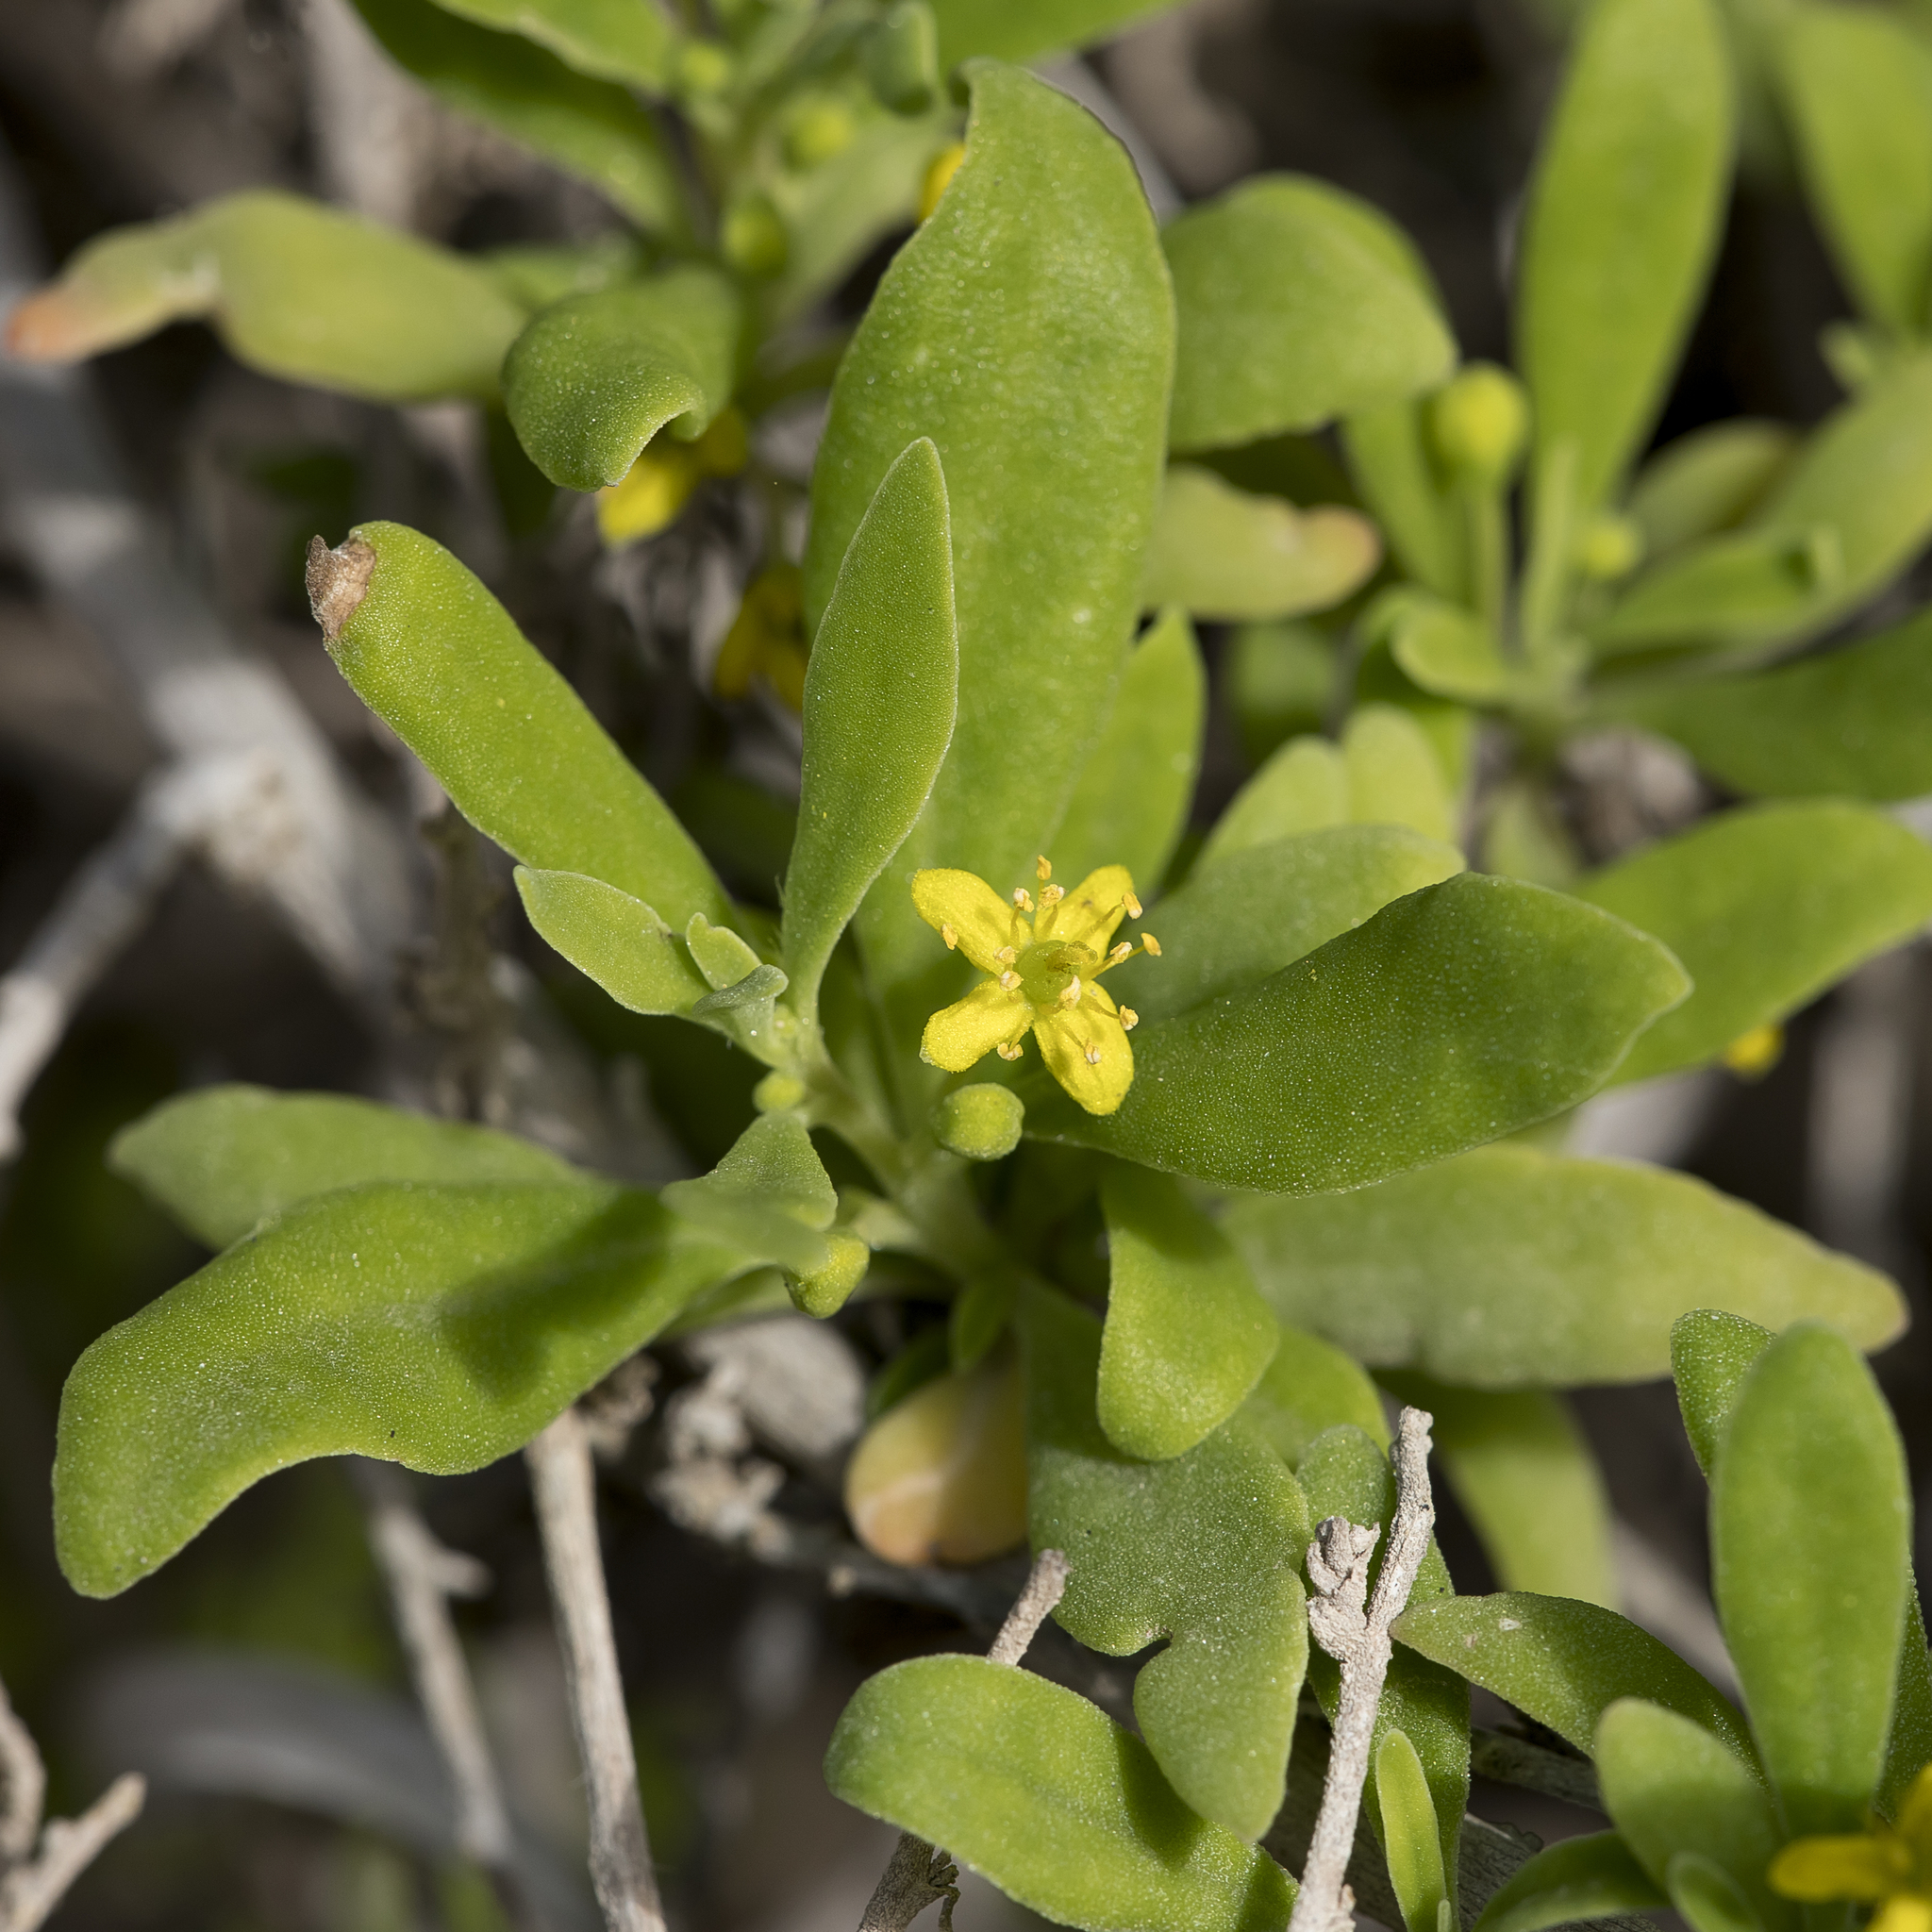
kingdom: Plantae
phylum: Tracheophyta
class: Magnoliopsida
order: Caryophyllales
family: Aizoaceae
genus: Tetragonia
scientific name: Tetragonia implexicoma
